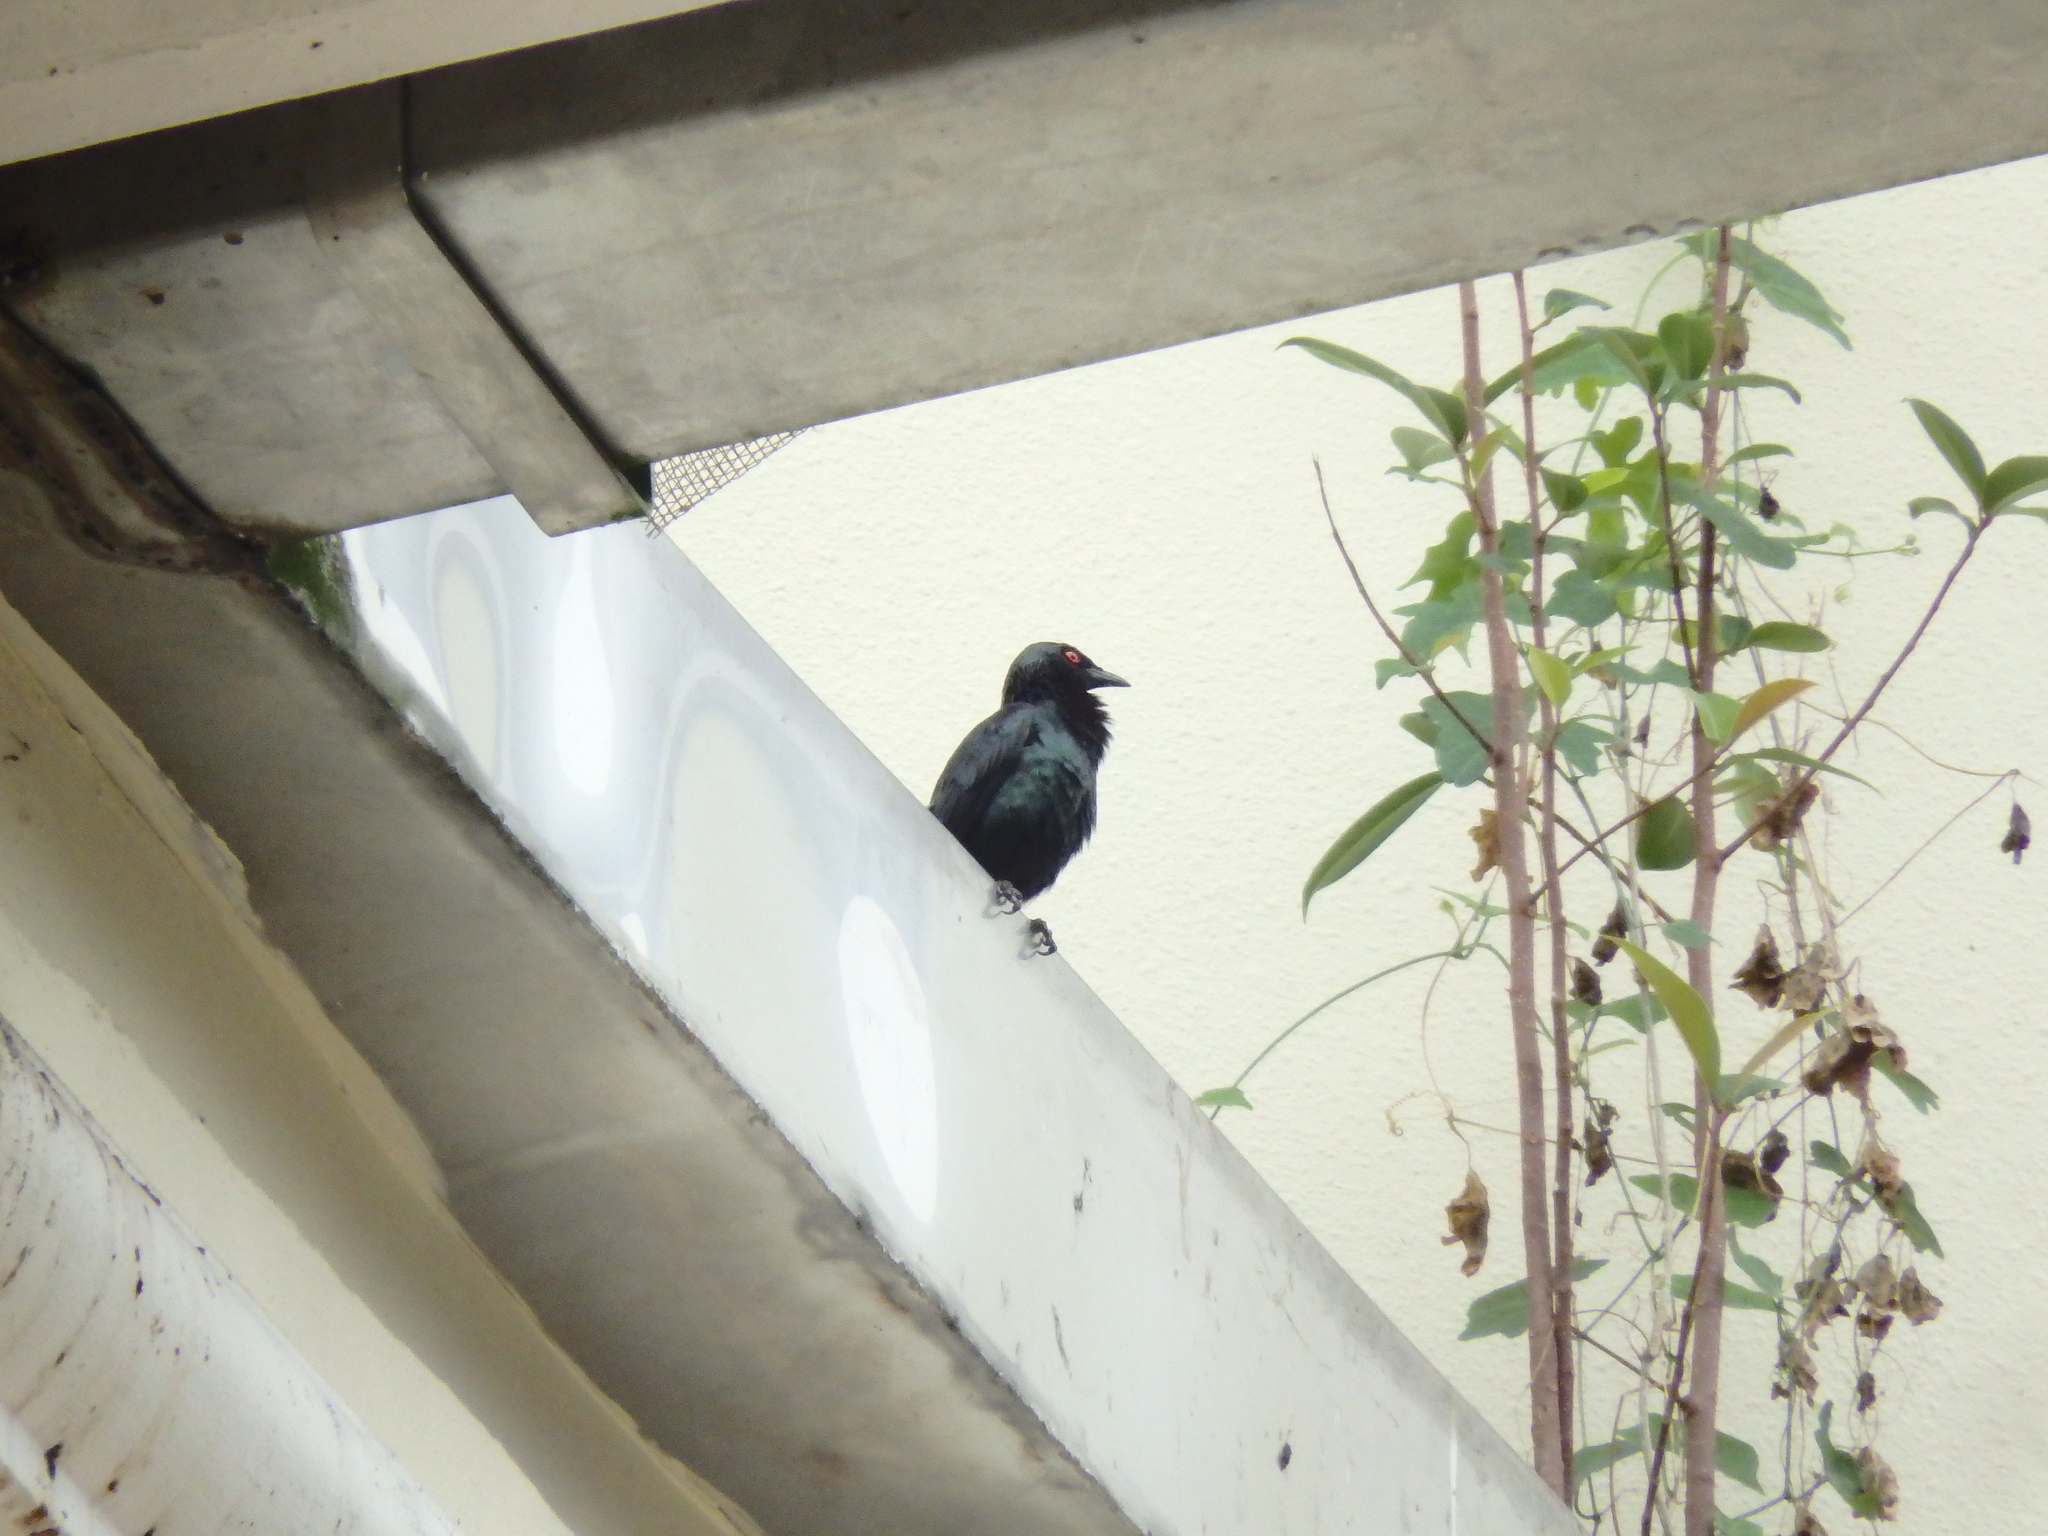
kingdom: Animalia
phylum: Chordata
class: Aves
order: Passeriformes
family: Sturnidae
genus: Aplonis
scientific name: Aplonis panayensis
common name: Asian glossy starling
